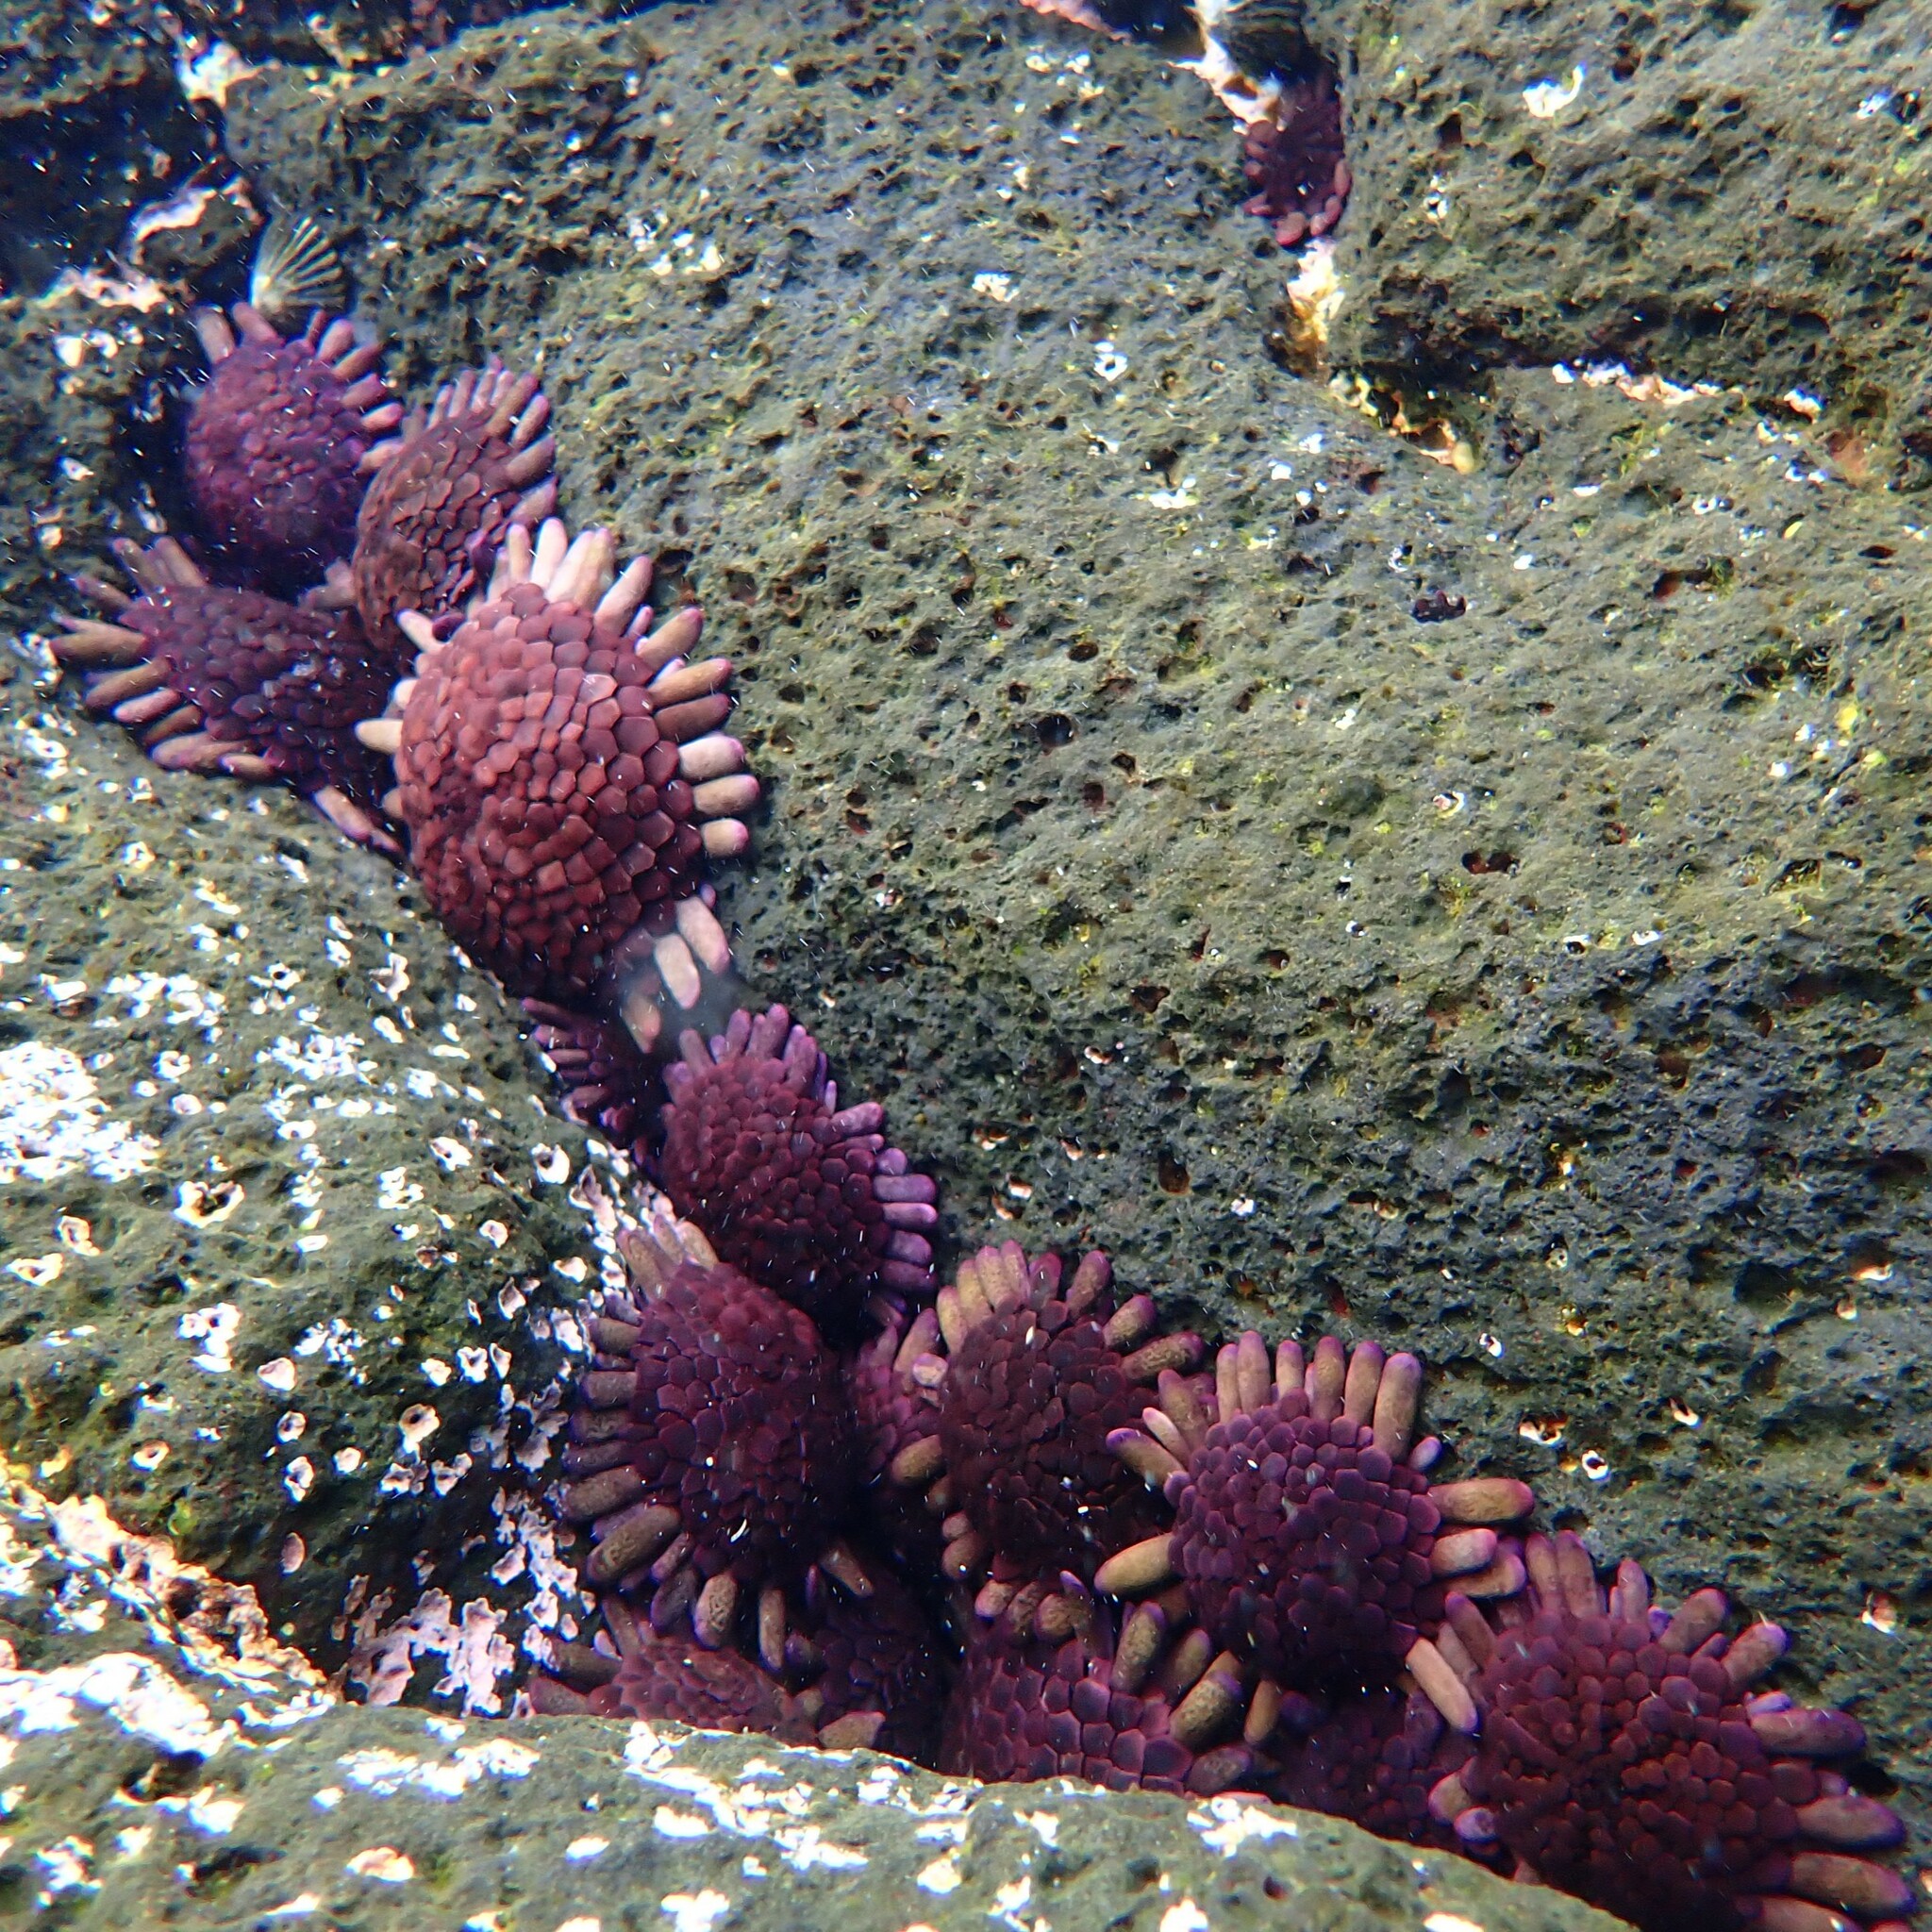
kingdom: Animalia
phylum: Echinodermata
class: Echinoidea
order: Camarodonta
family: Echinometridae
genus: Colobocentrotus
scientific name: Colobocentrotus atratus
